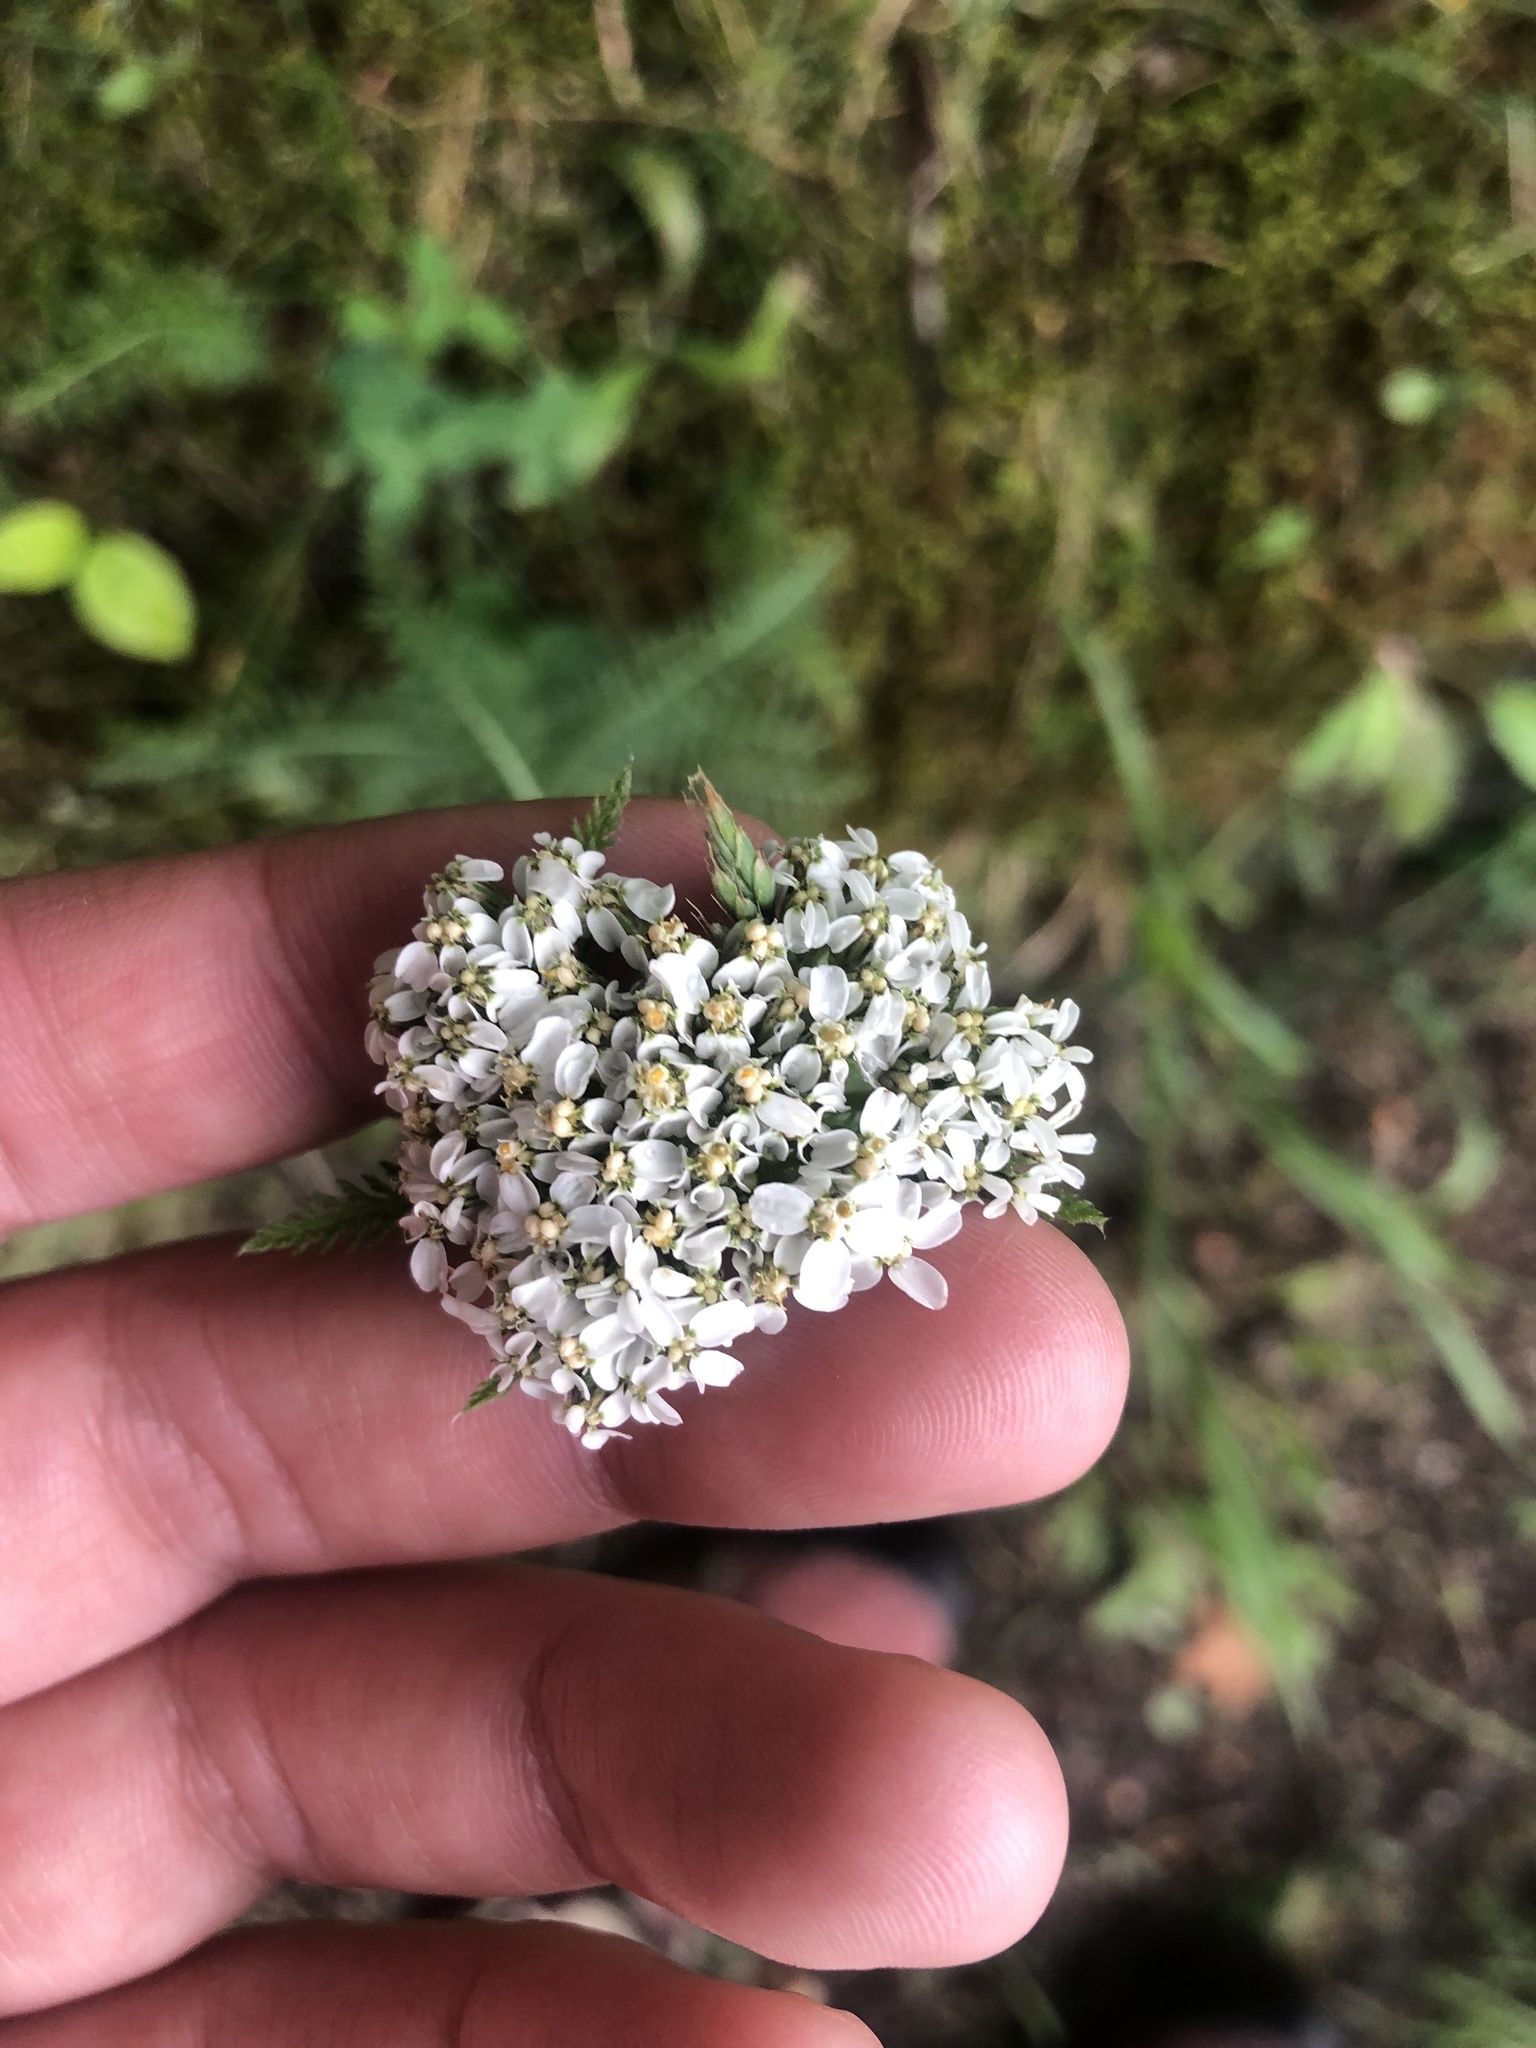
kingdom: Plantae
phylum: Tracheophyta
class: Magnoliopsida
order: Asterales
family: Asteraceae
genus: Achillea
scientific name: Achillea millefolium
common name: Yarrow
